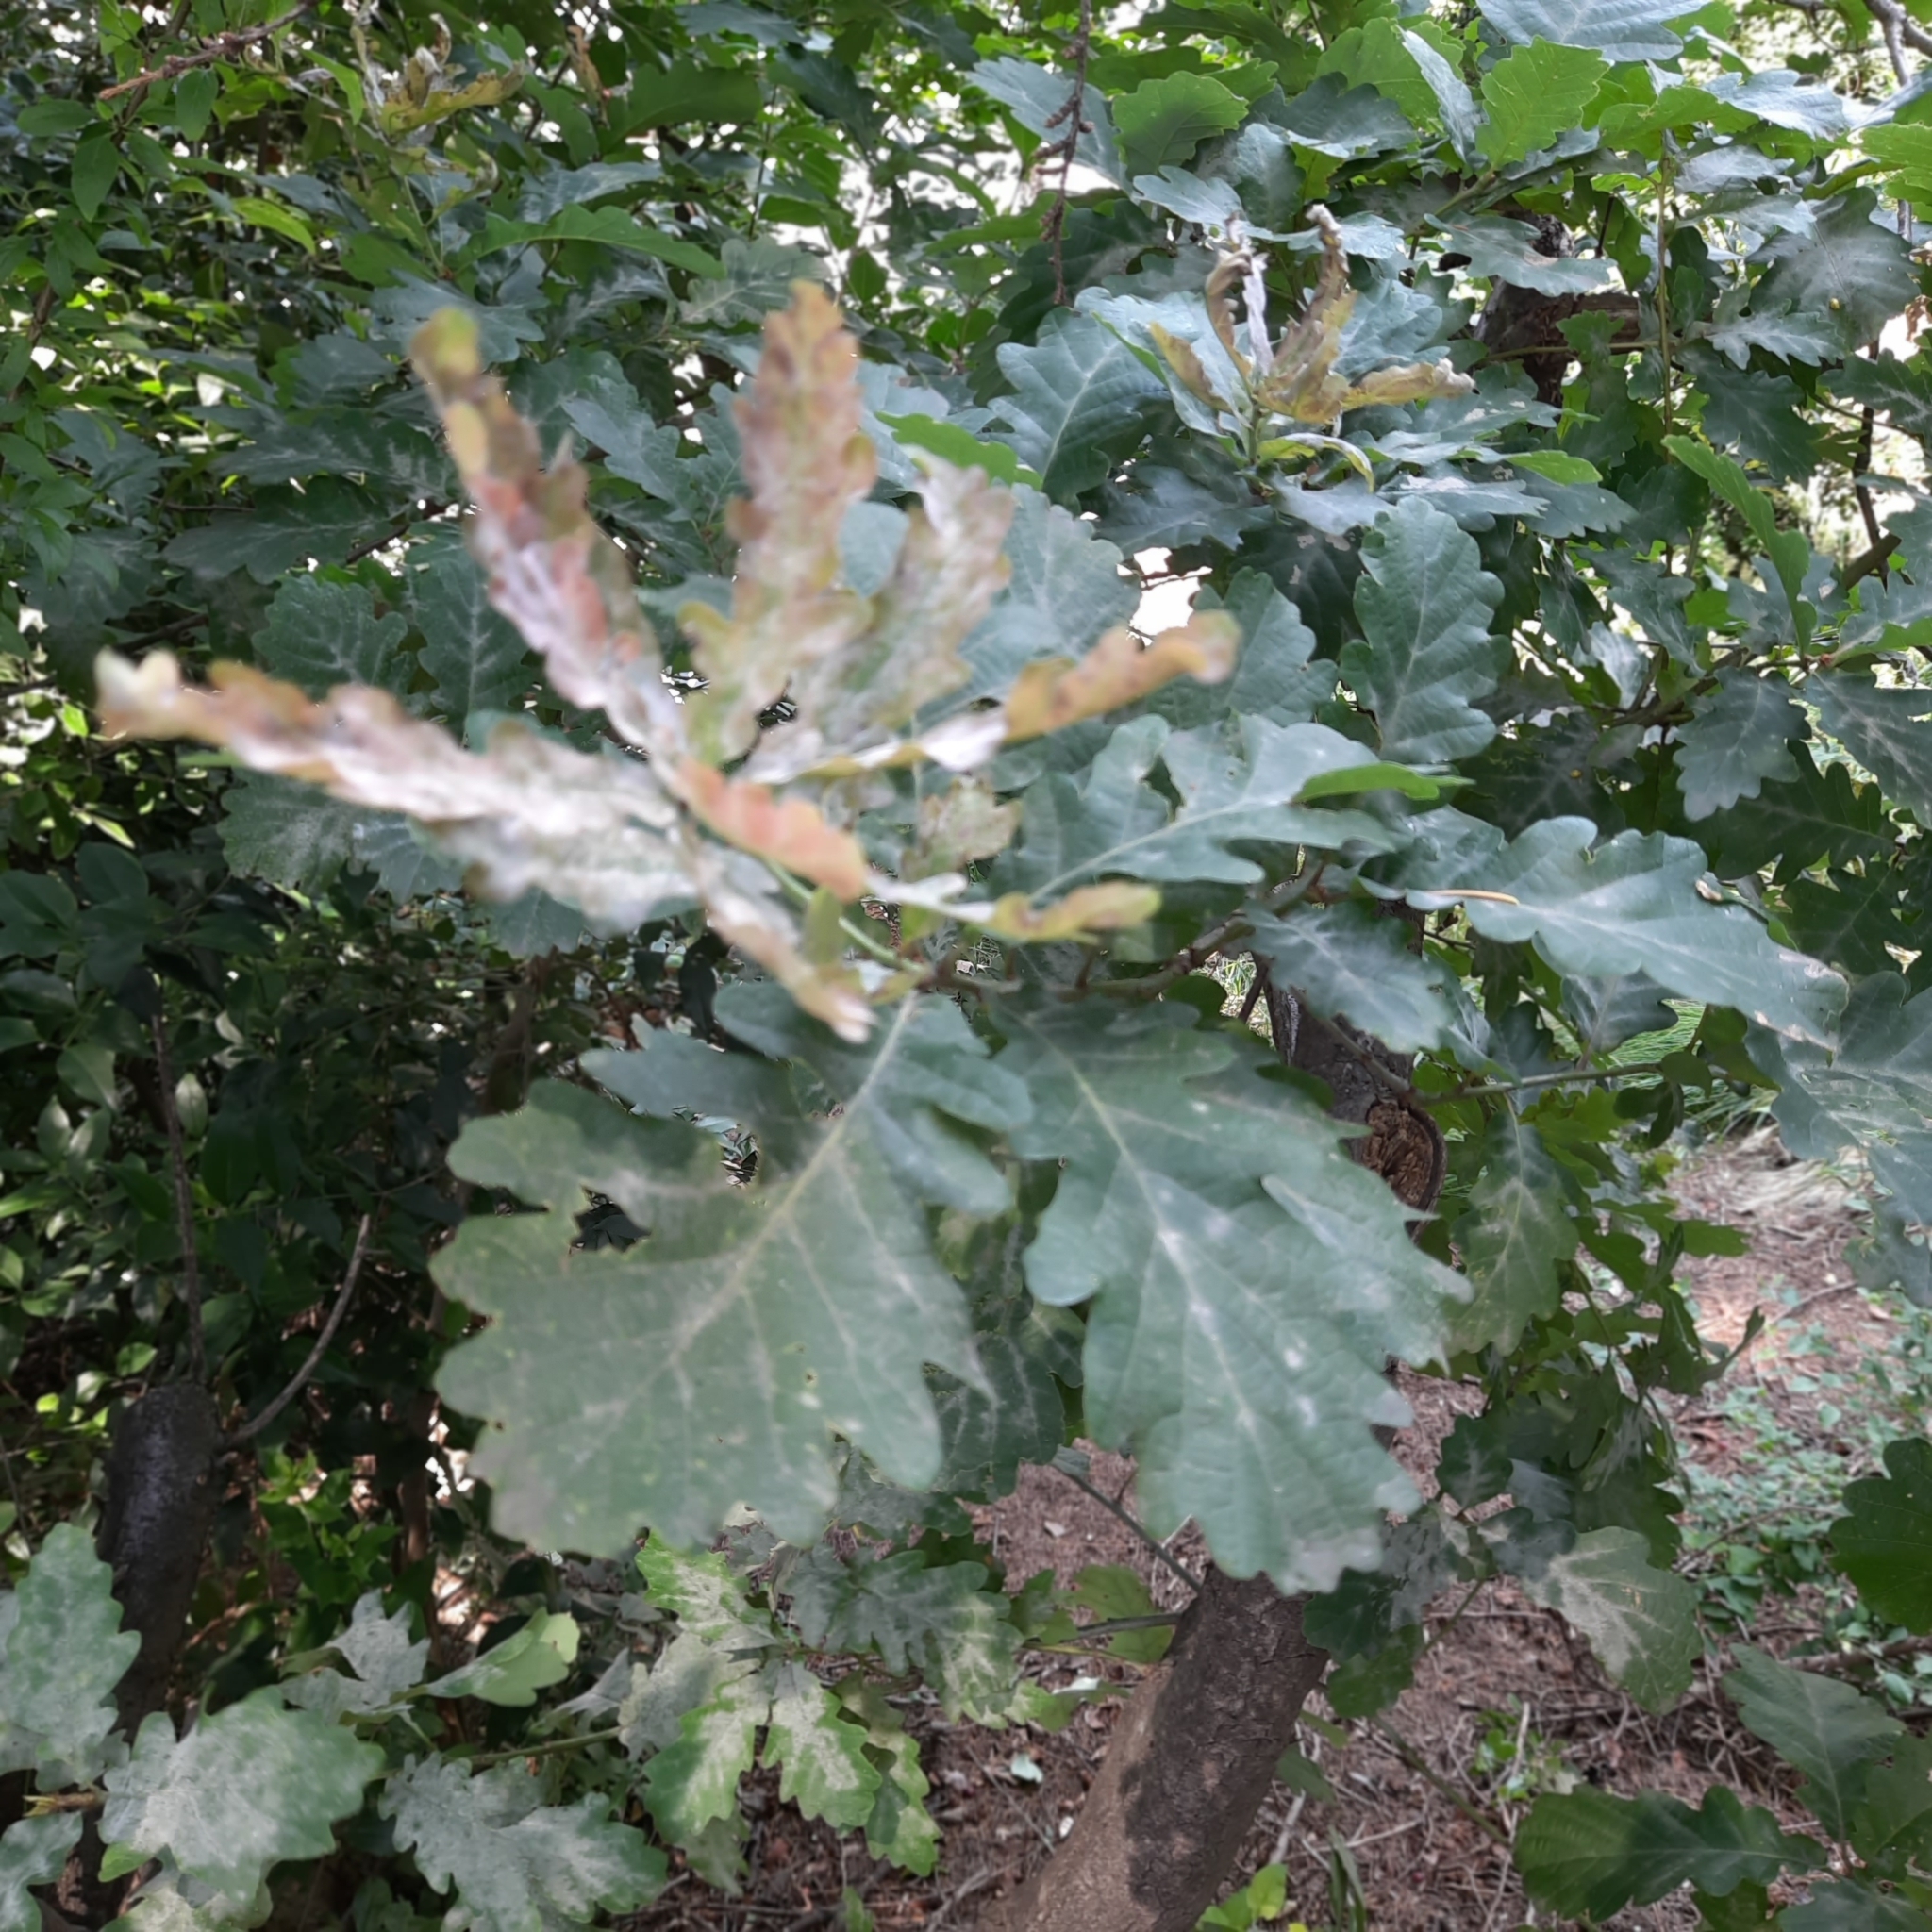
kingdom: Plantae
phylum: Tracheophyta
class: Magnoliopsida
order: Fagales
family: Fagaceae
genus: Quercus
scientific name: Quercus petraea
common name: Sessile oak
